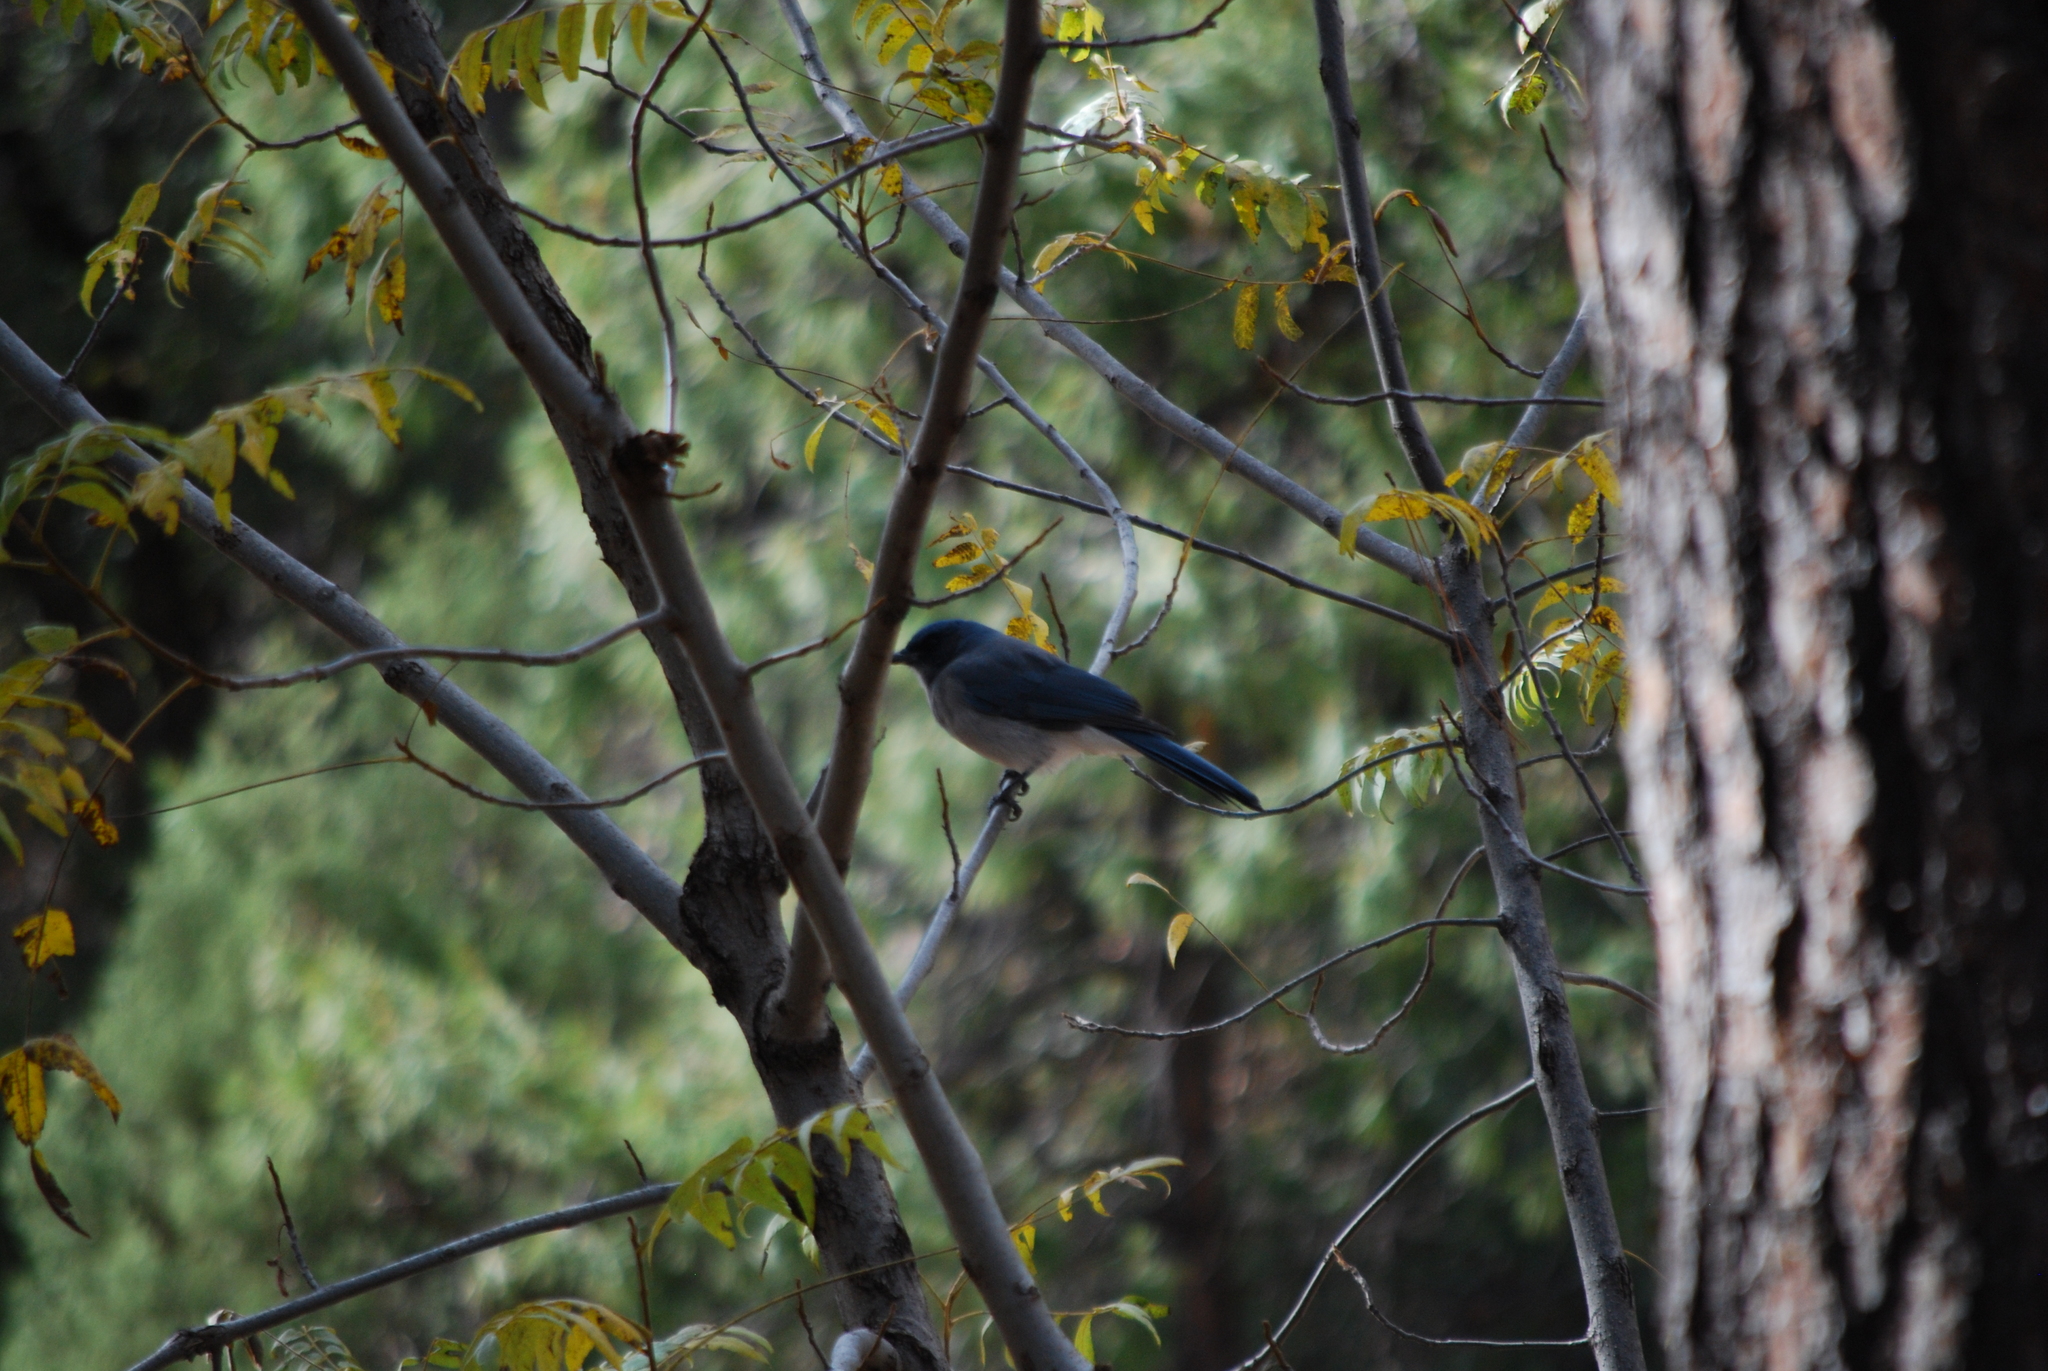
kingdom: Animalia
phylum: Chordata
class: Aves
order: Passeriformes
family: Corvidae
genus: Aphelocoma
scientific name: Aphelocoma wollweberi
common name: Mexican jay
